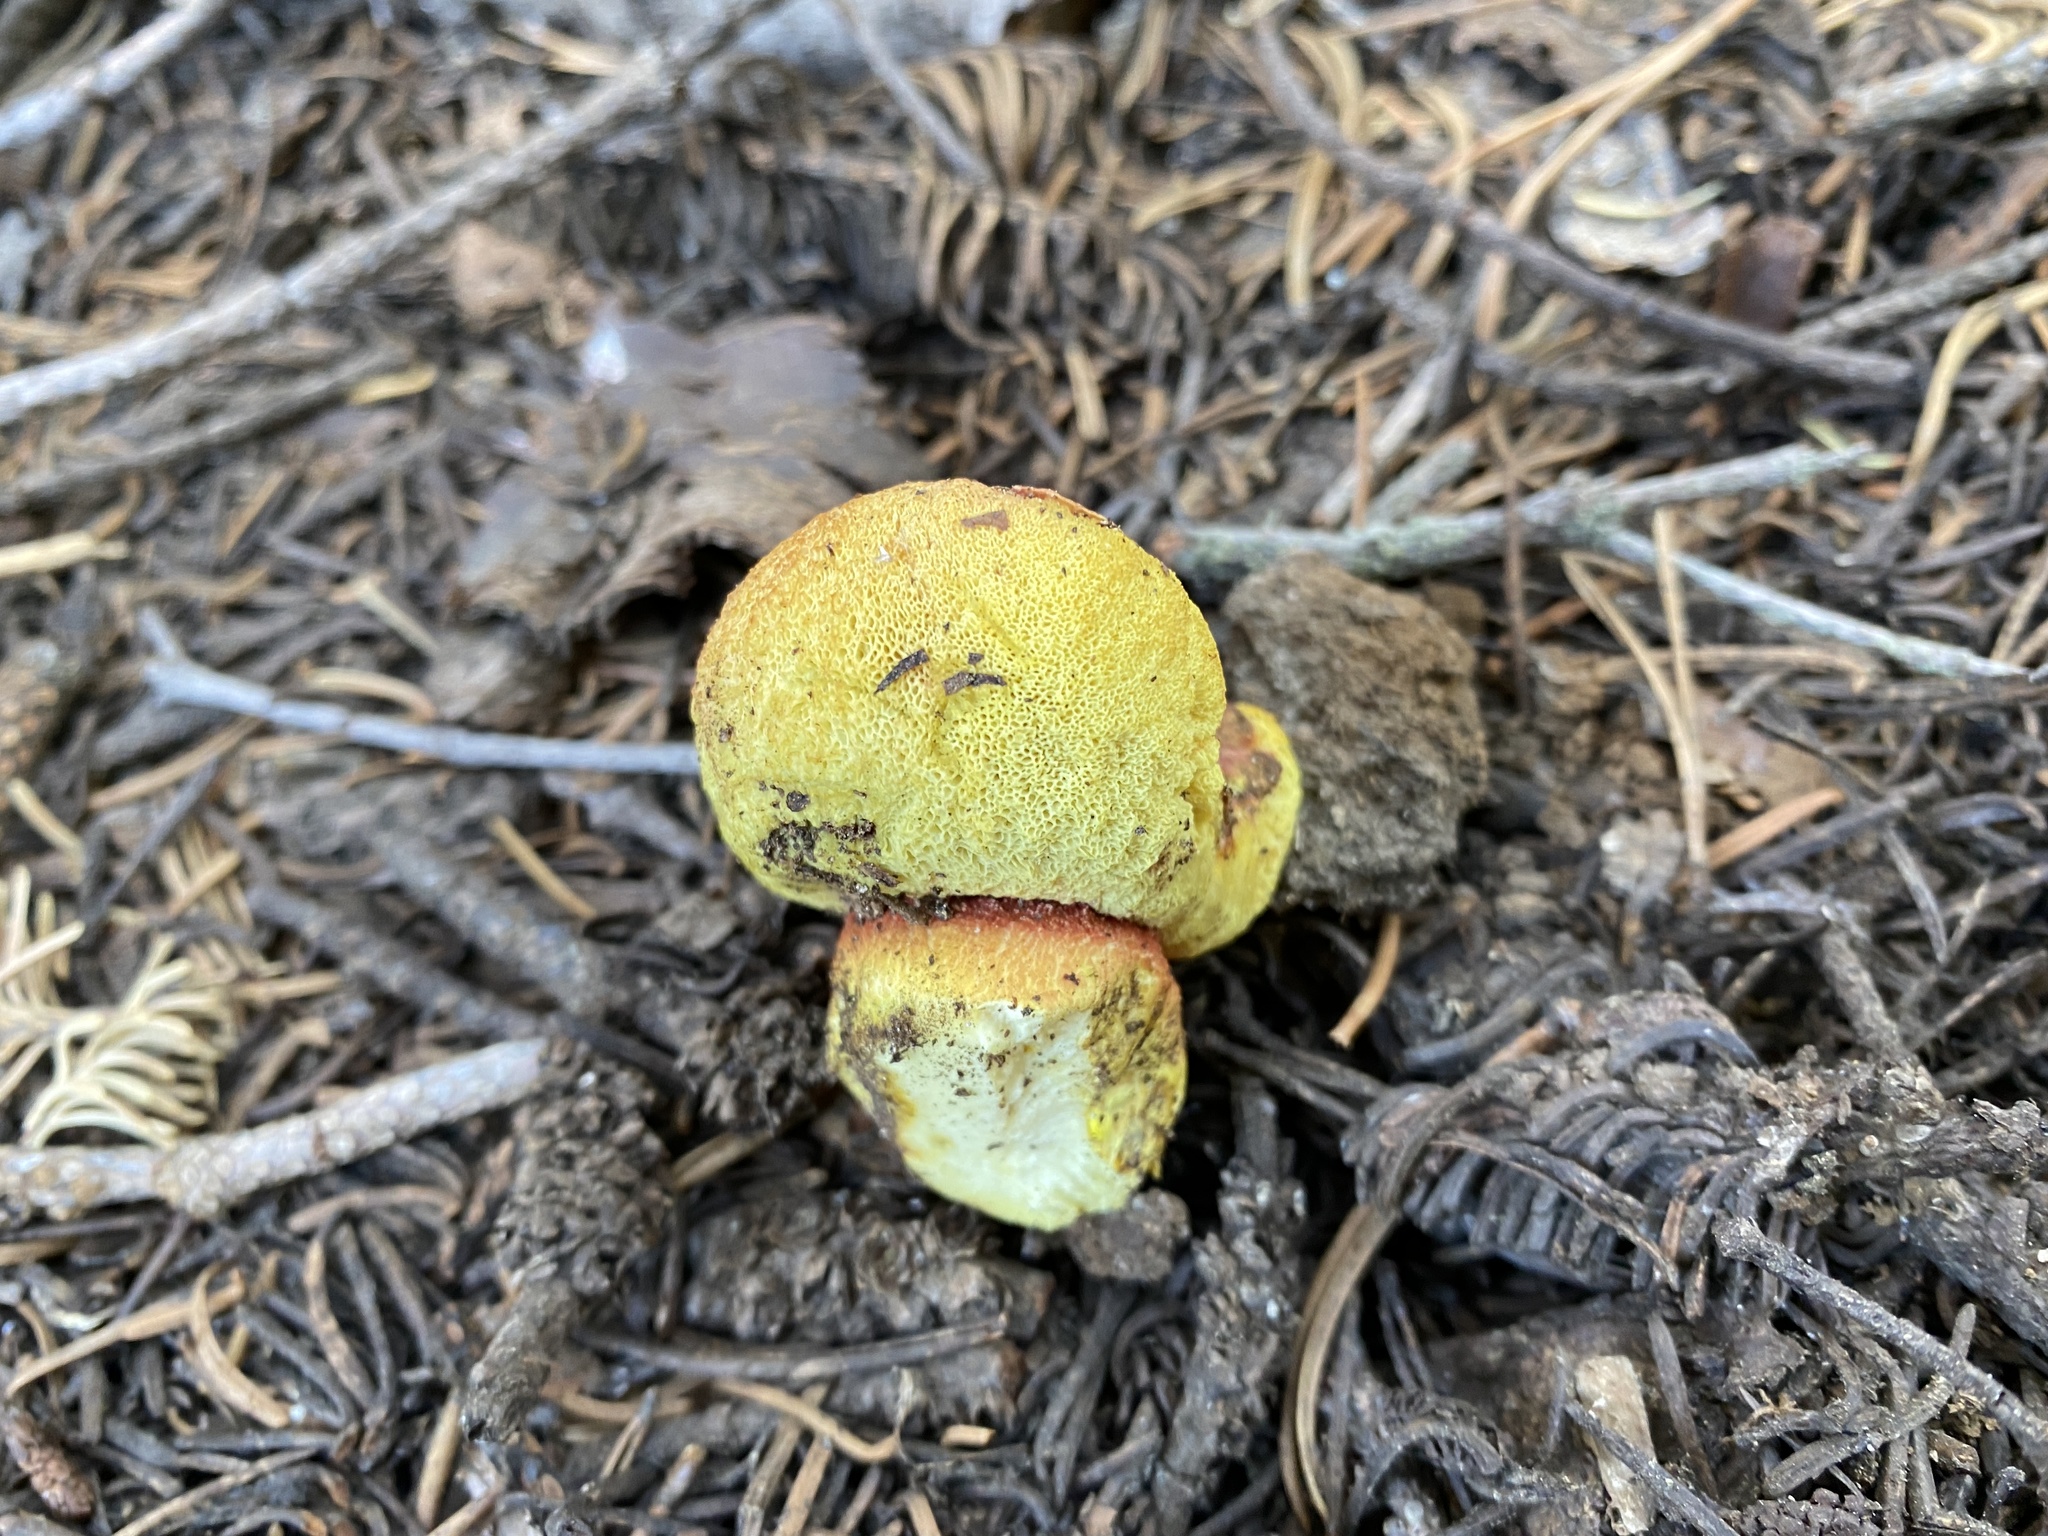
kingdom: Fungi
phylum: Basidiomycota
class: Agaricomycetes
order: Boletales
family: Boletaceae
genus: Gastroboletus
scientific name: Gastroboletus vividus
